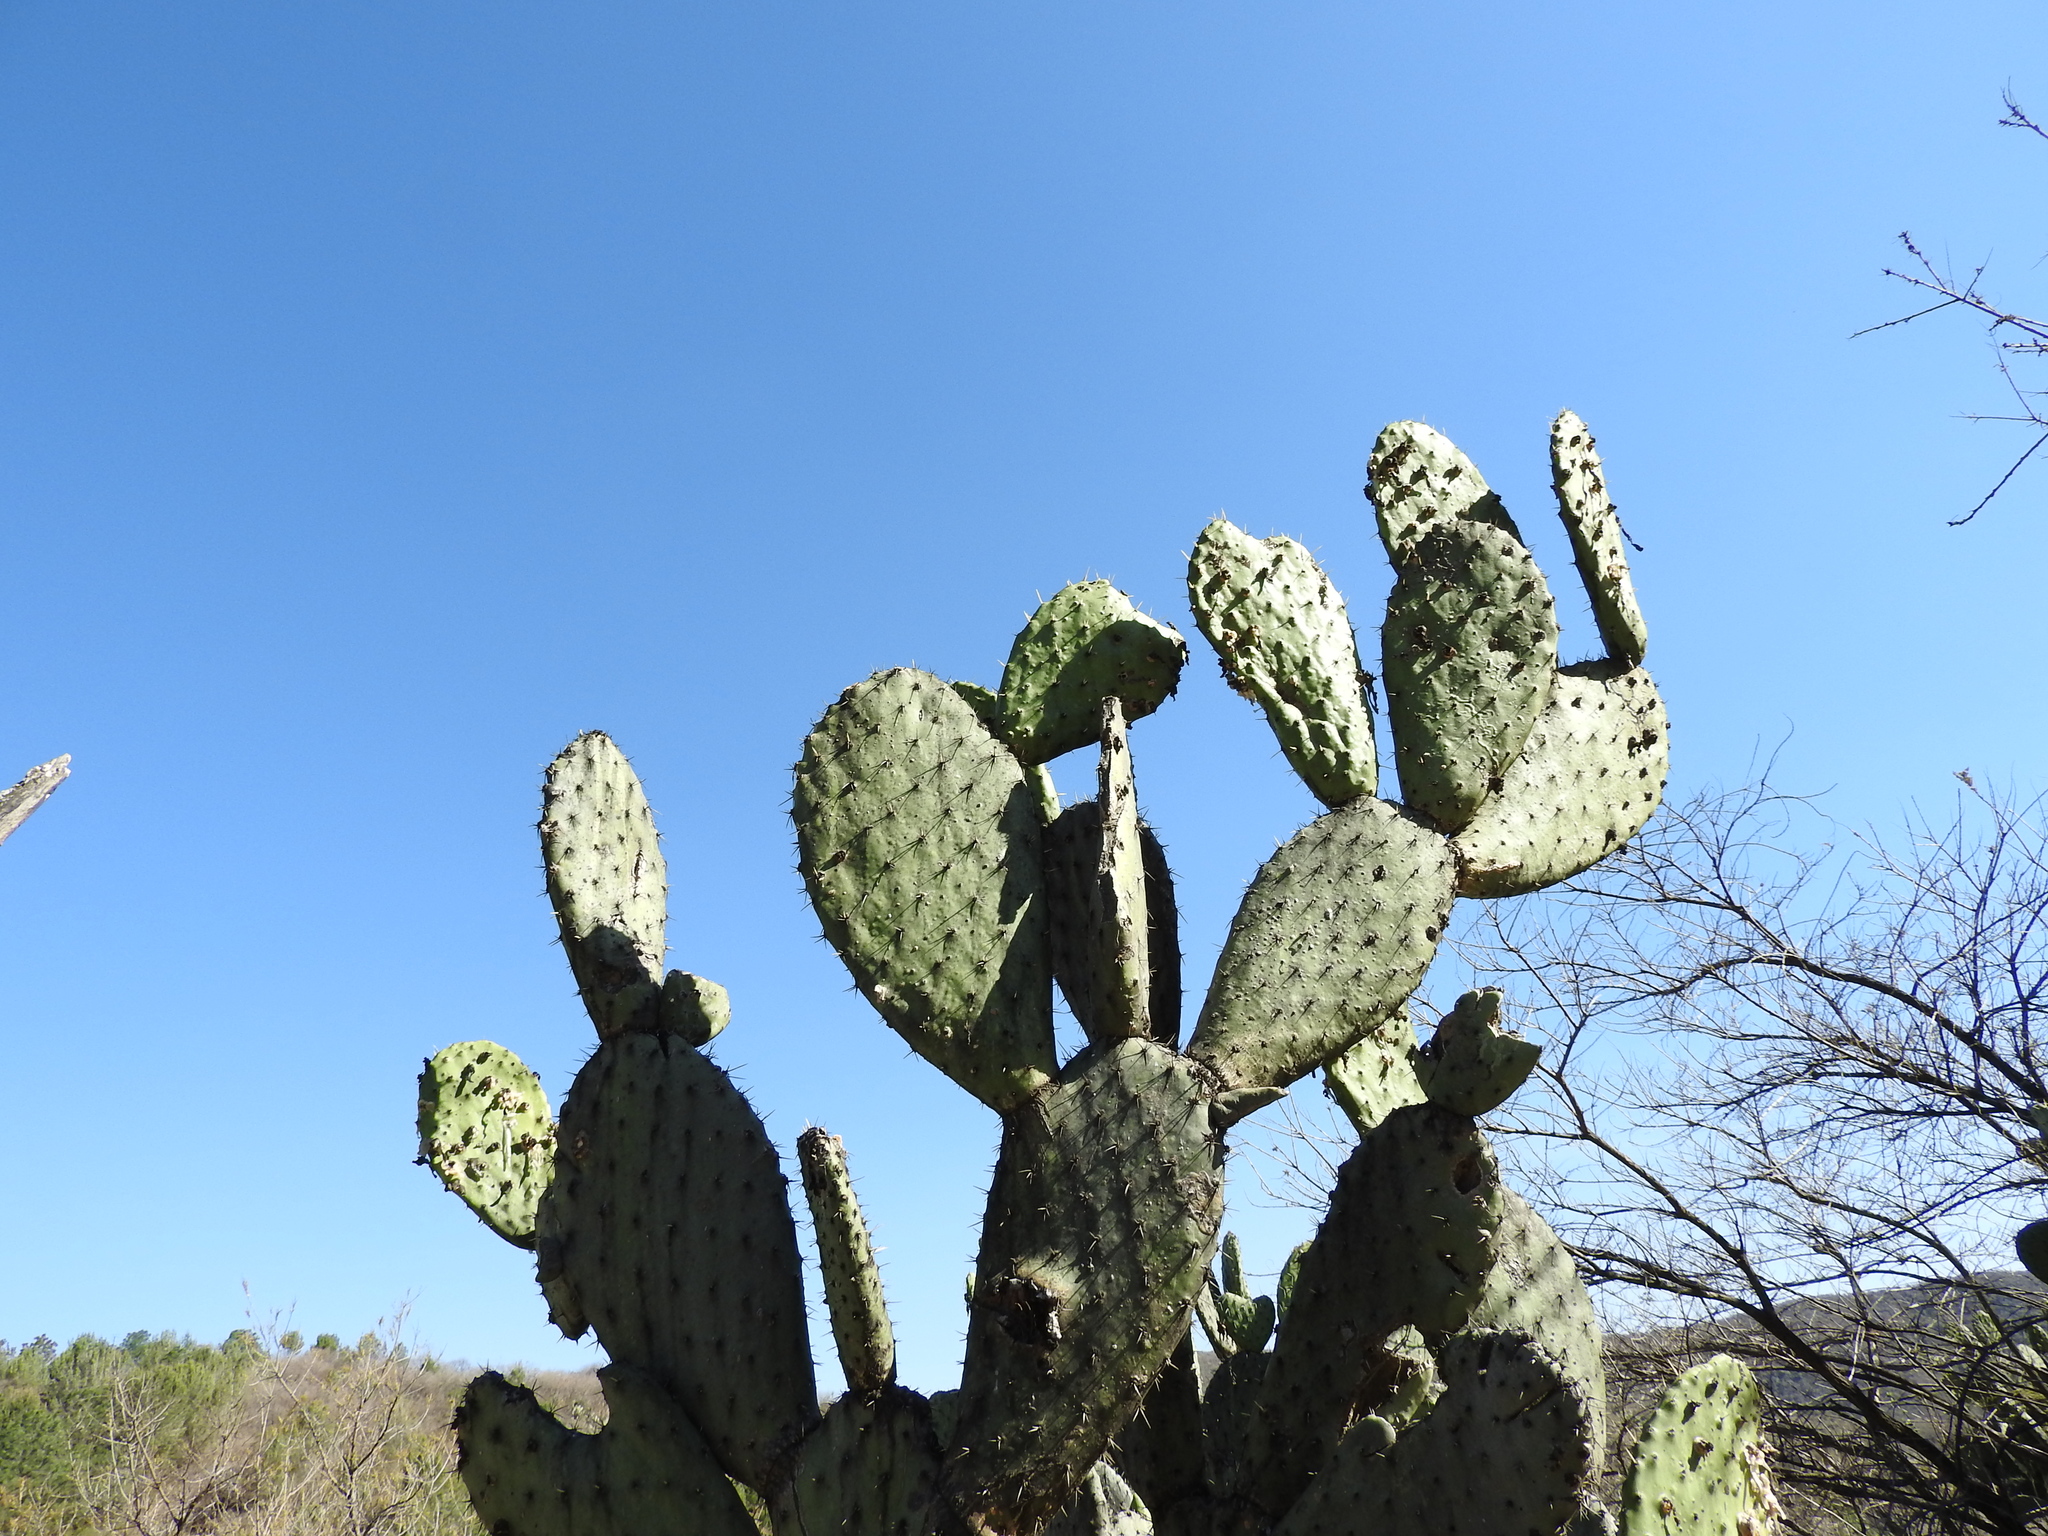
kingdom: Plantae
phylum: Tracheophyta
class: Magnoliopsida
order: Caryophyllales
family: Cactaceae
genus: Opuntia
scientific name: Opuntia hyptiacantha
